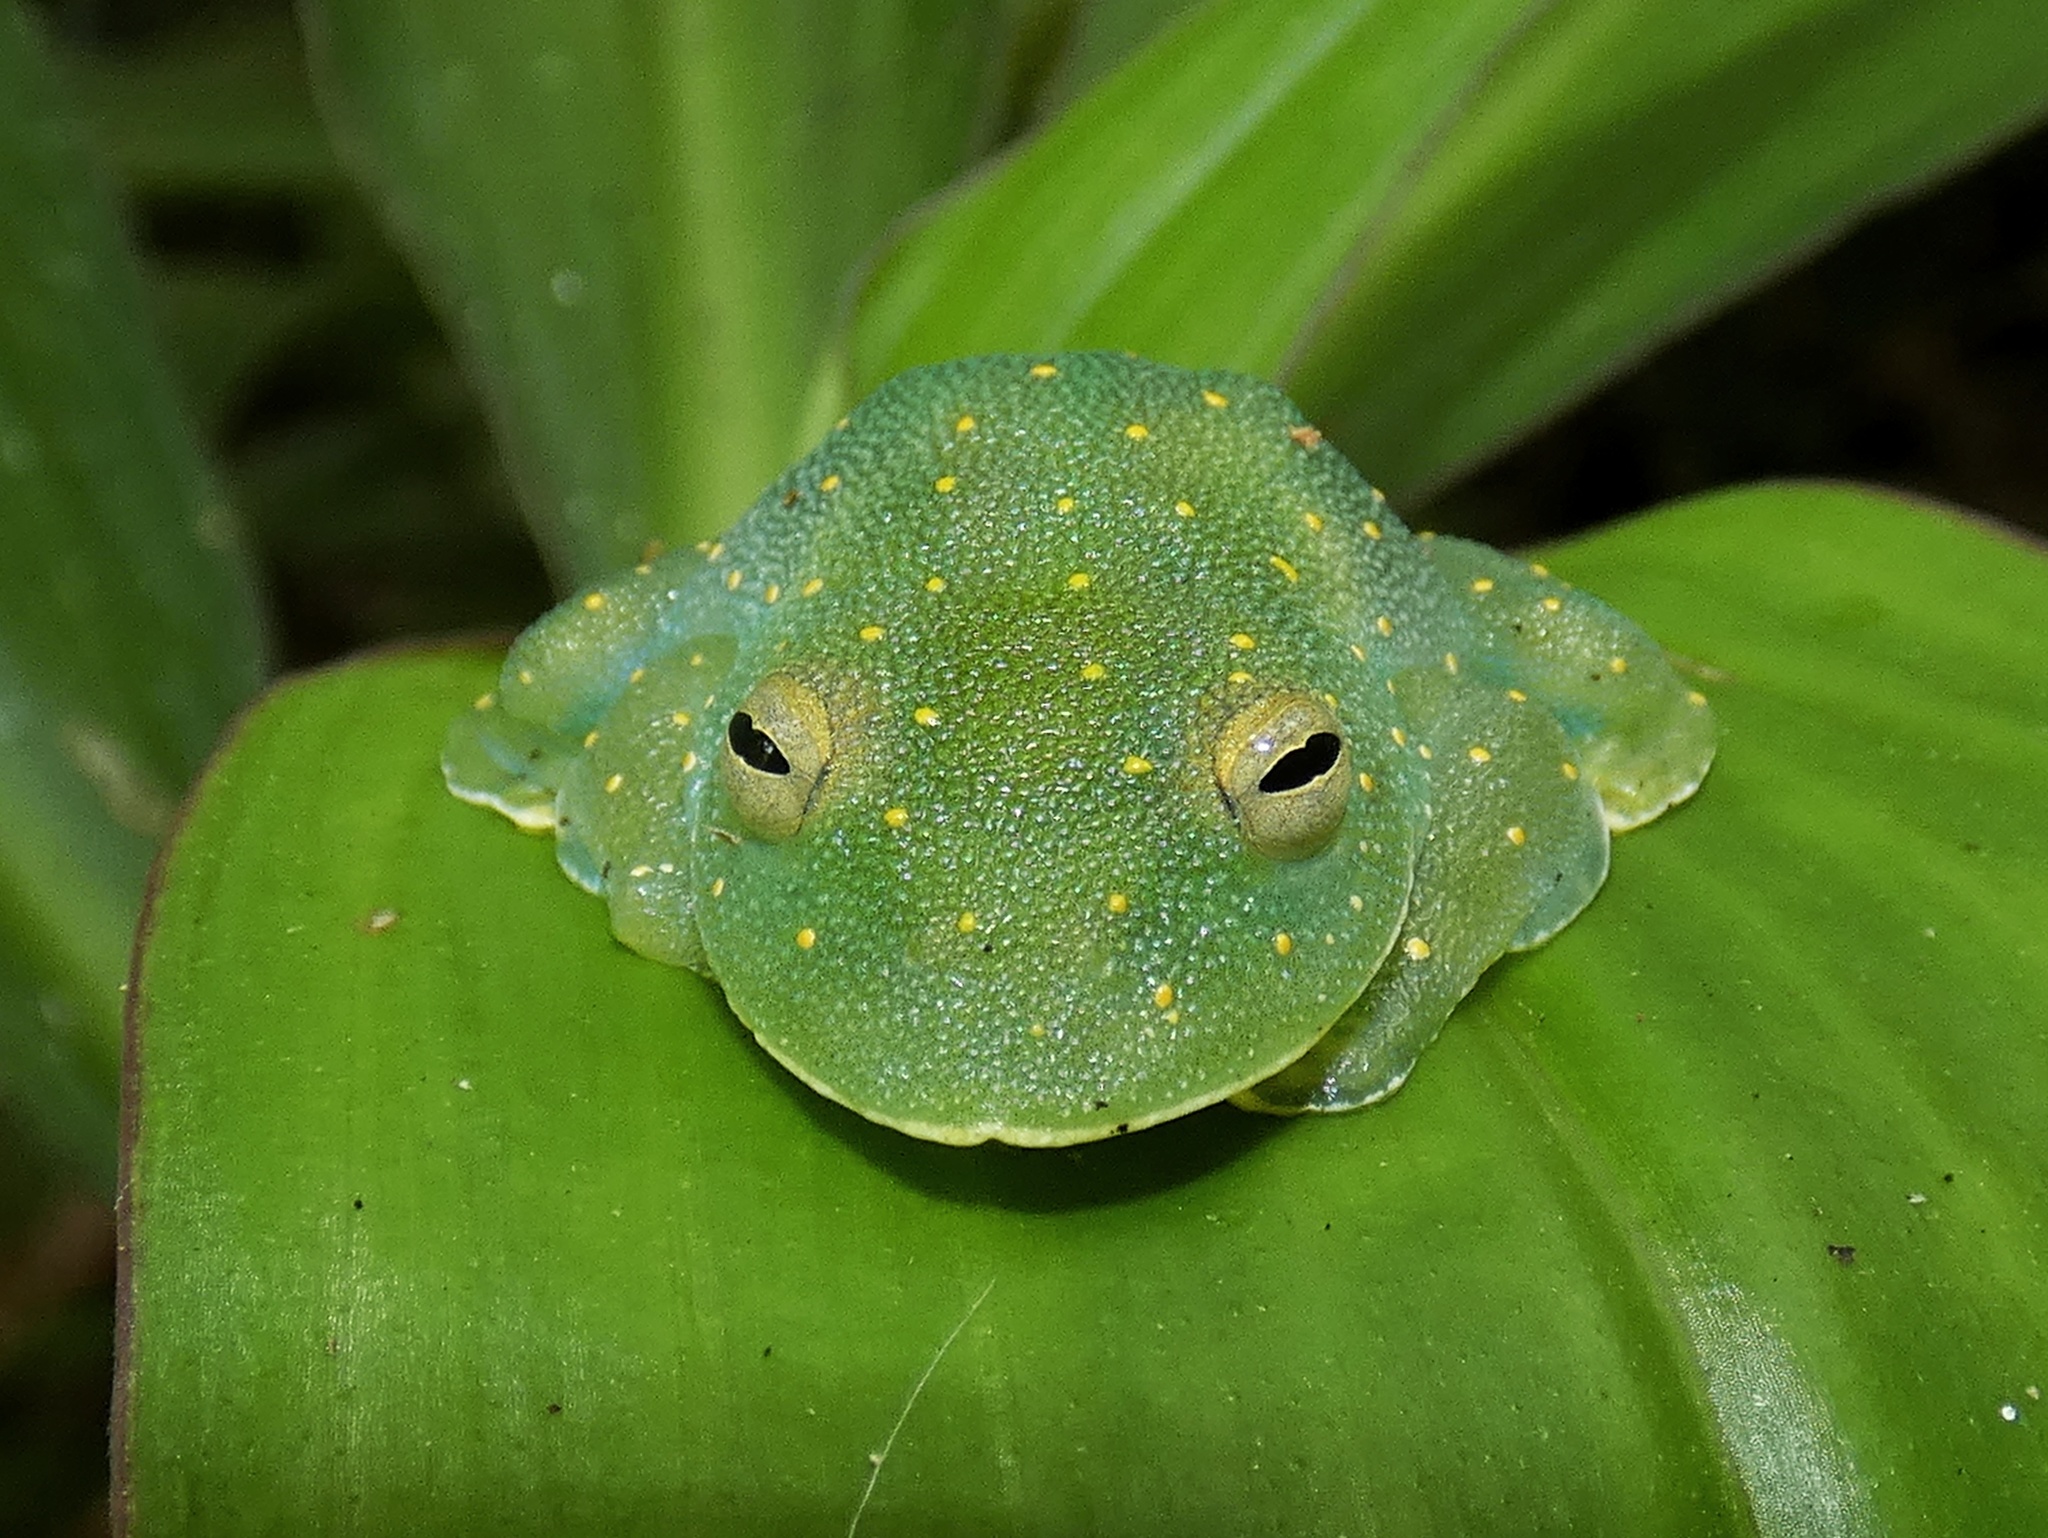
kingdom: Animalia
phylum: Chordata
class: Amphibia
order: Anura
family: Centrolenidae
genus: Cochranella
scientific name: Cochranella euknemos
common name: San jose cochran frog
